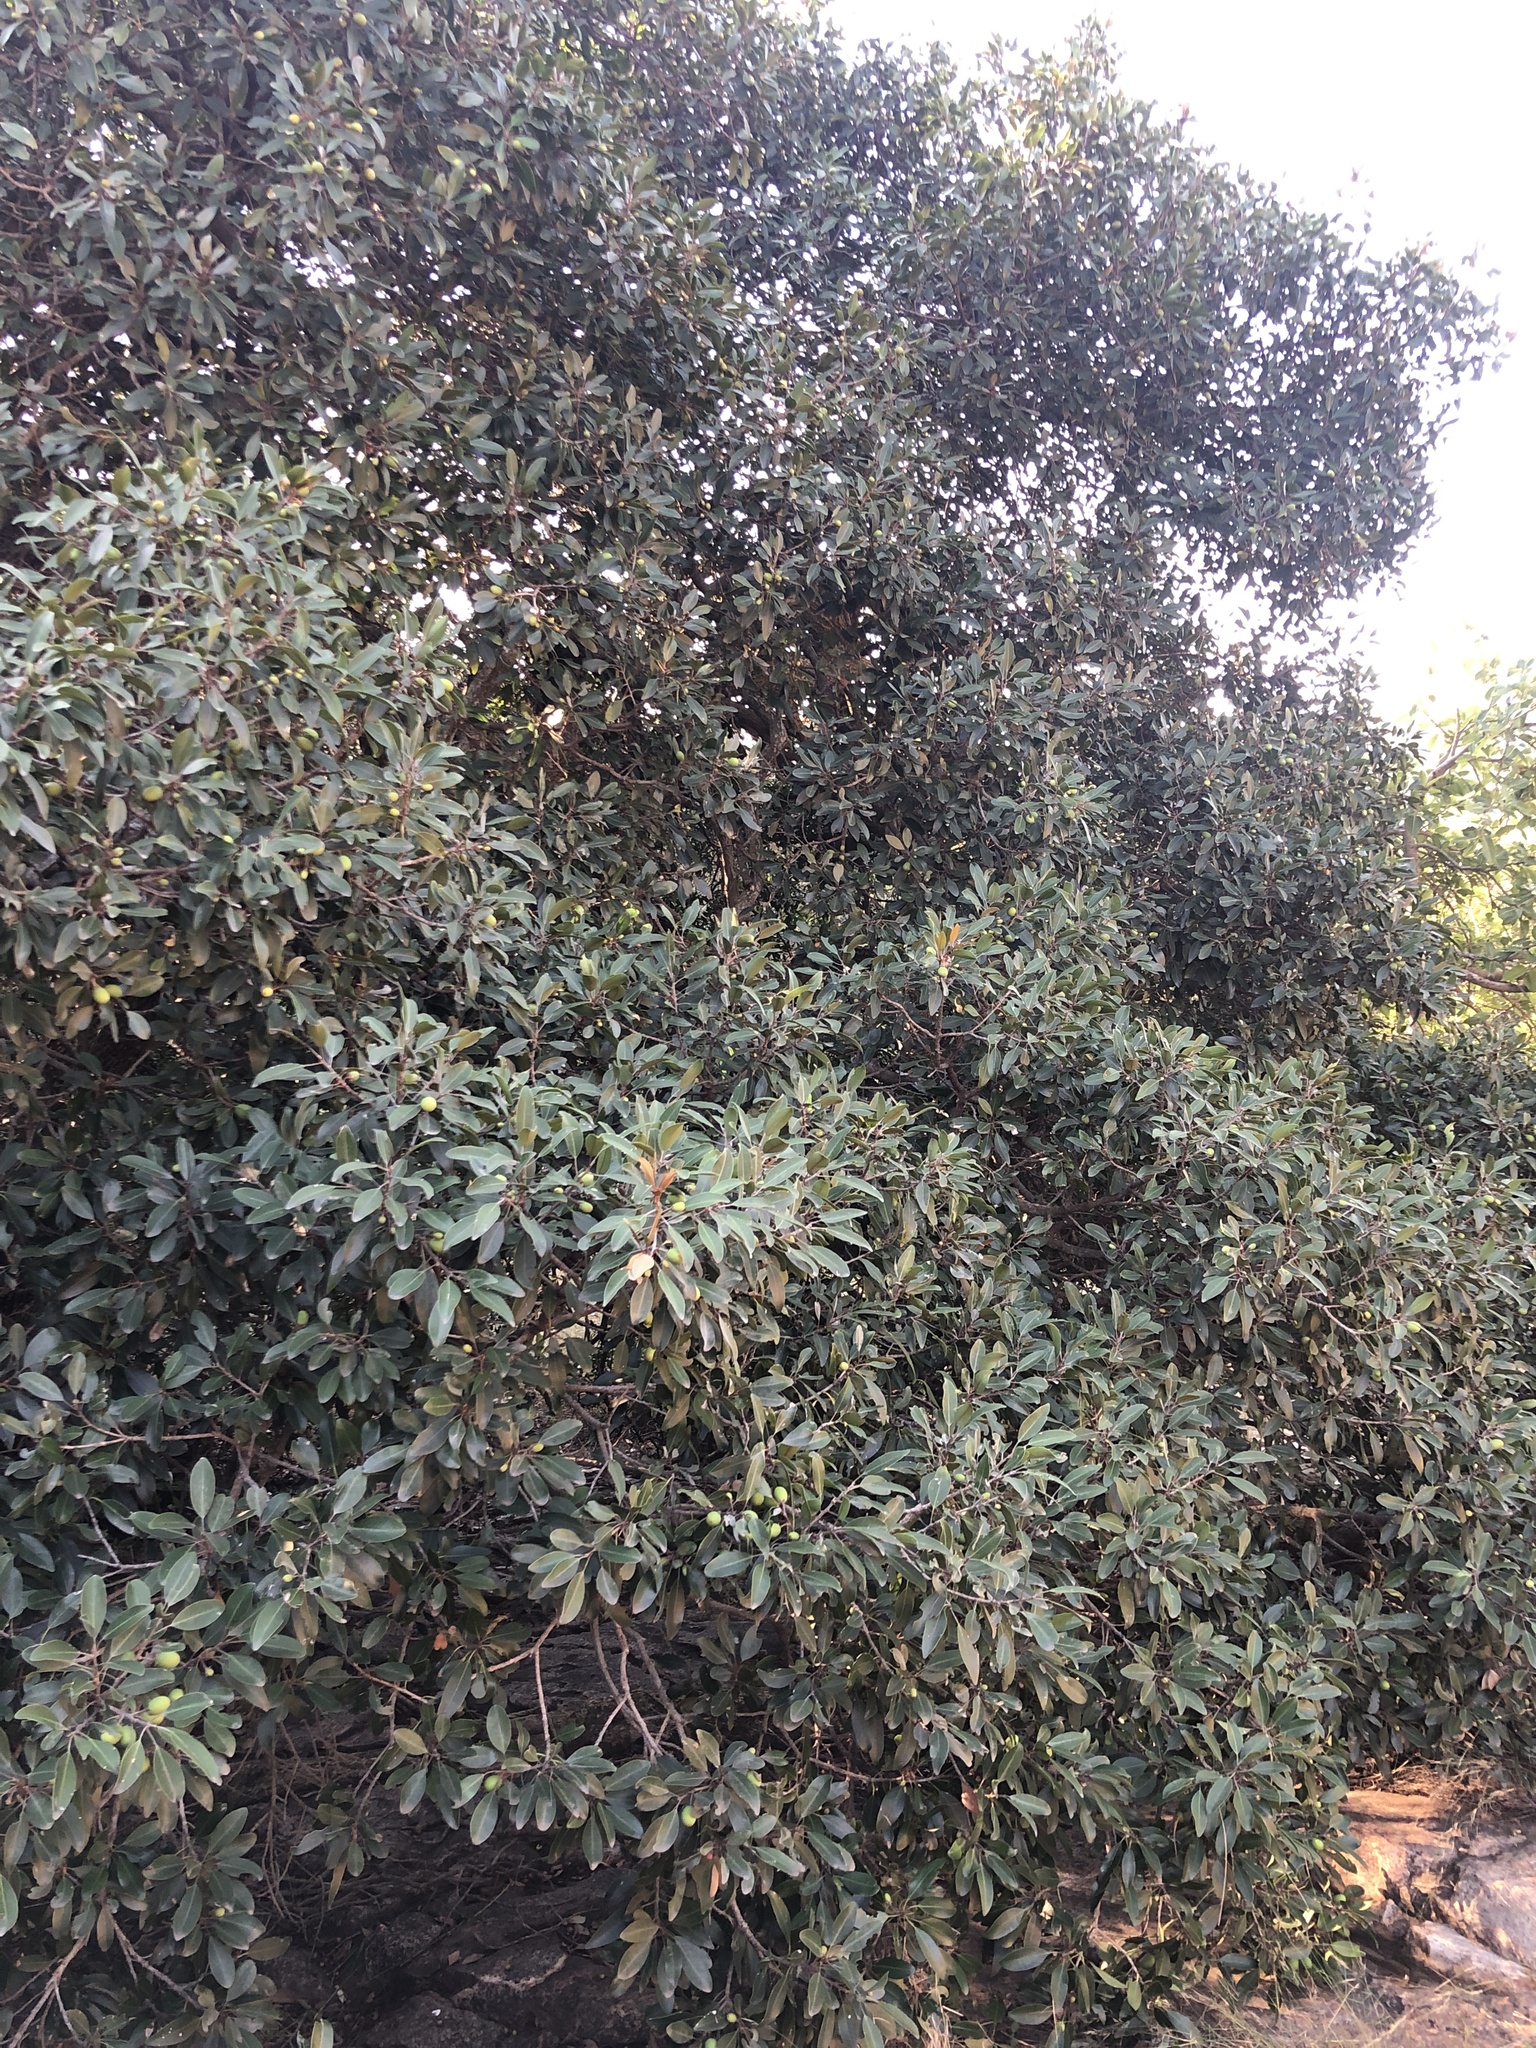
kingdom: Plantae
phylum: Tracheophyta
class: Magnoliopsida
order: Ericales
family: Sapotaceae
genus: Mimusops
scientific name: Mimusops zeyheri
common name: Transvaal red milkwood
